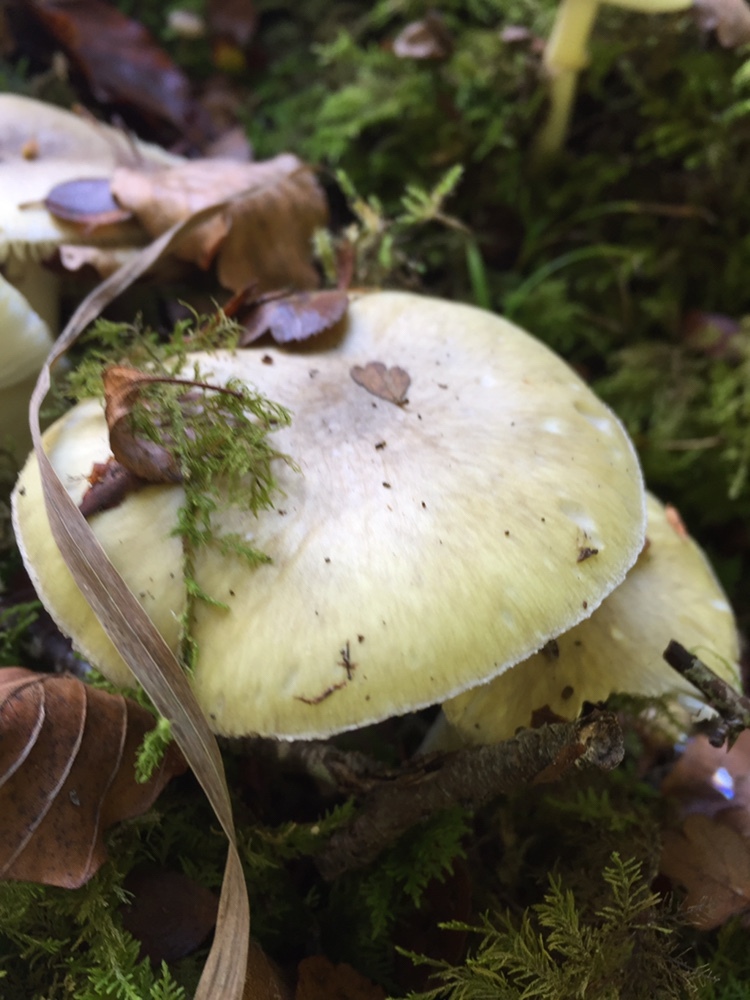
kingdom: Fungi
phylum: Basidiomycota
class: Agaricomycetes
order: Agaricales
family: Amanitaceae
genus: Amanita
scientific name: Amanita phalloides
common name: Death cap
